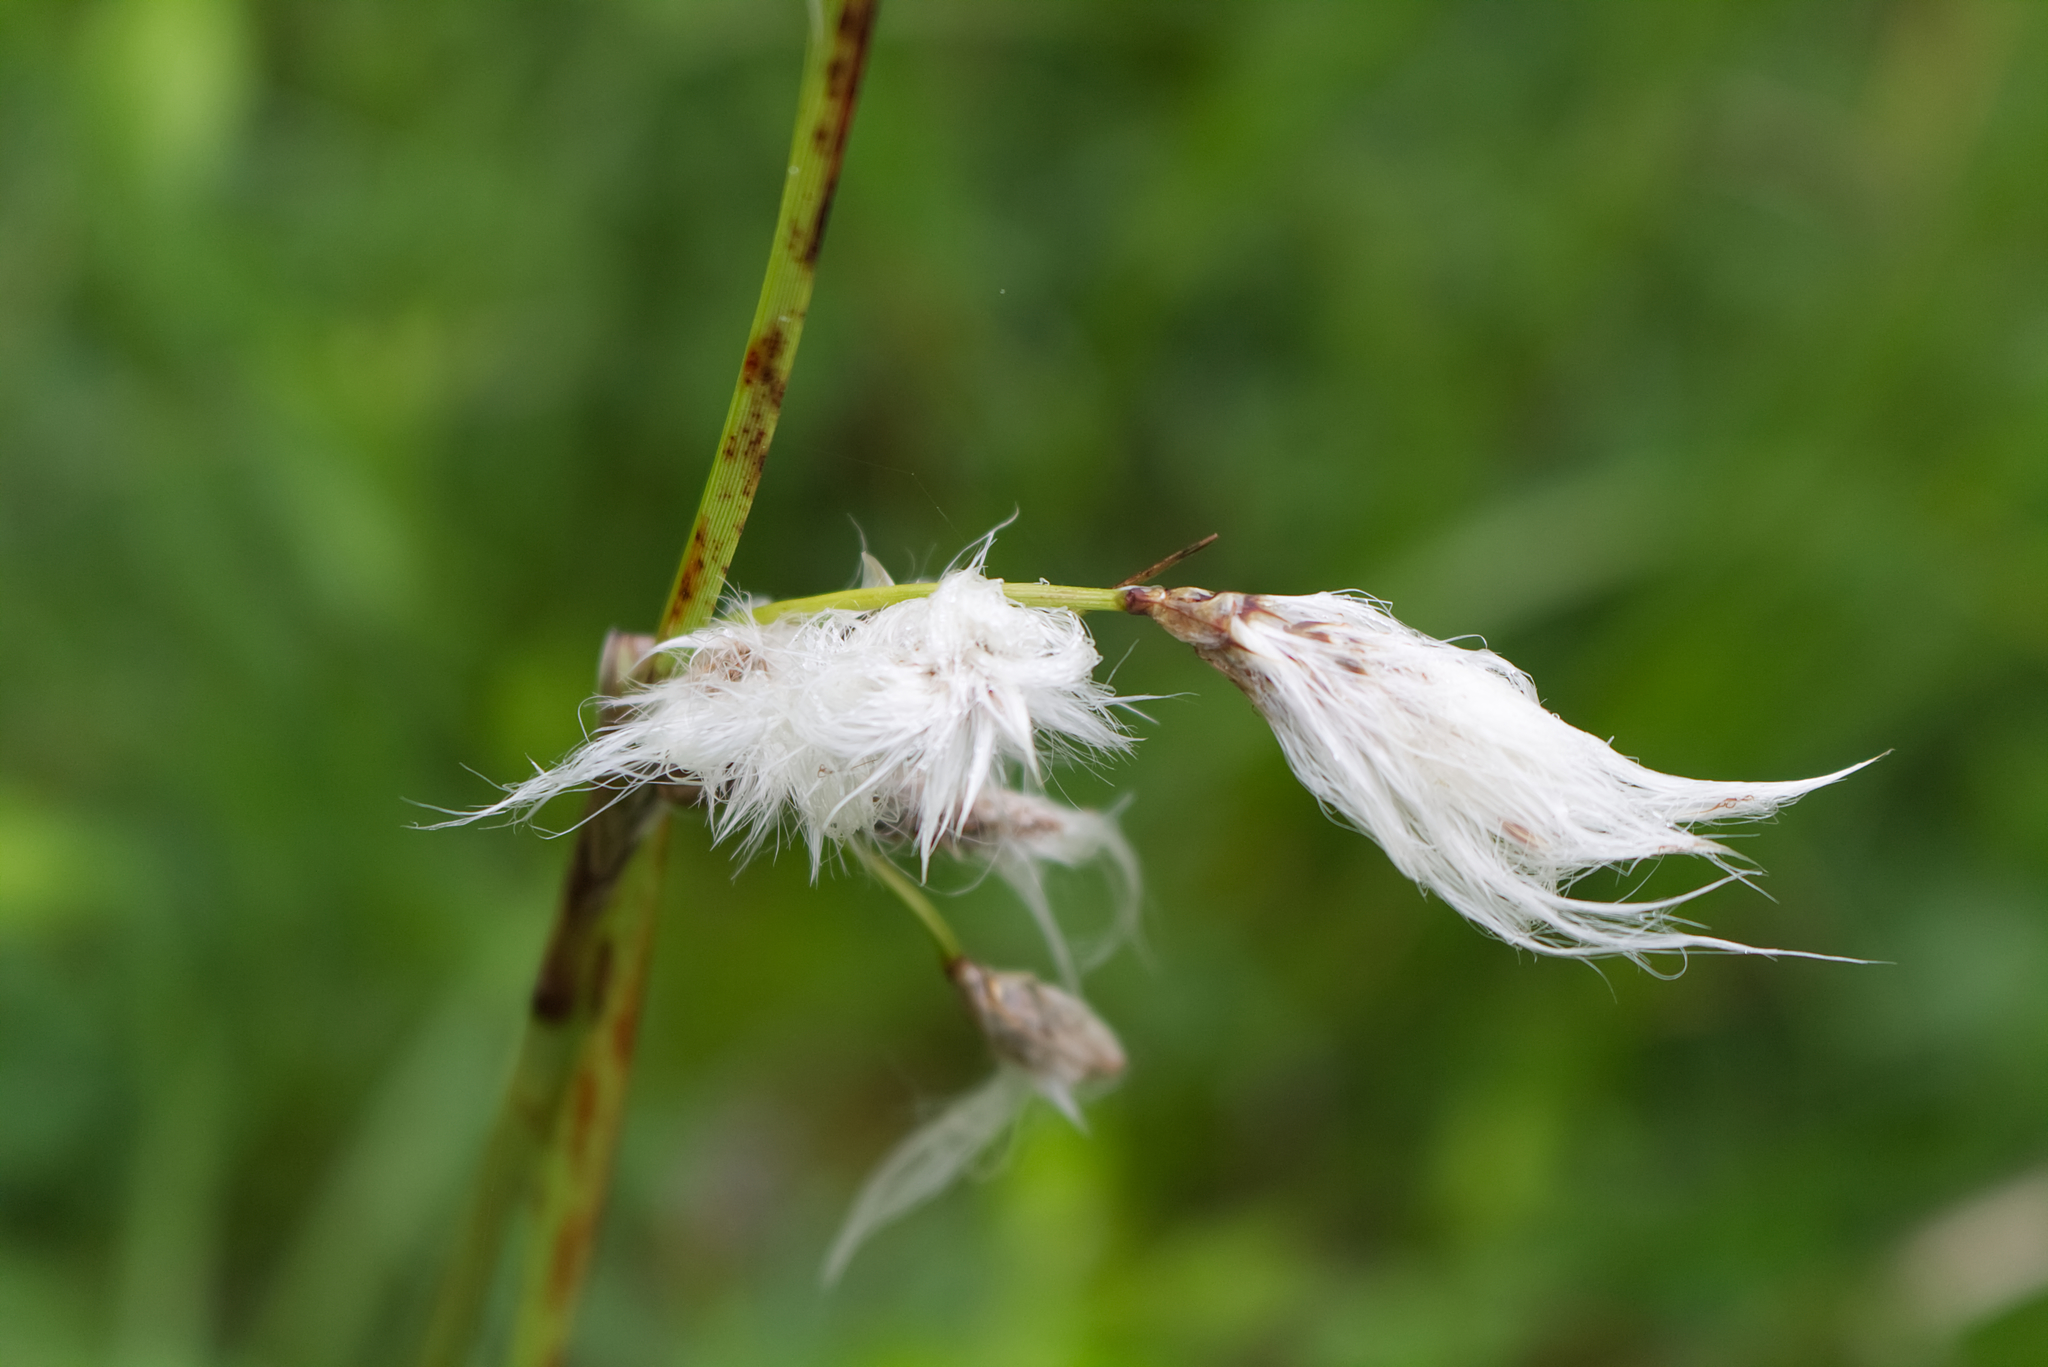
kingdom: Plantae
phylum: Tracheophyta
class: Liliopsida
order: Poales
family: Cyperaceae
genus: Eriophorum
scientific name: Eriophorum angustifolium
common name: Common cottongrass
